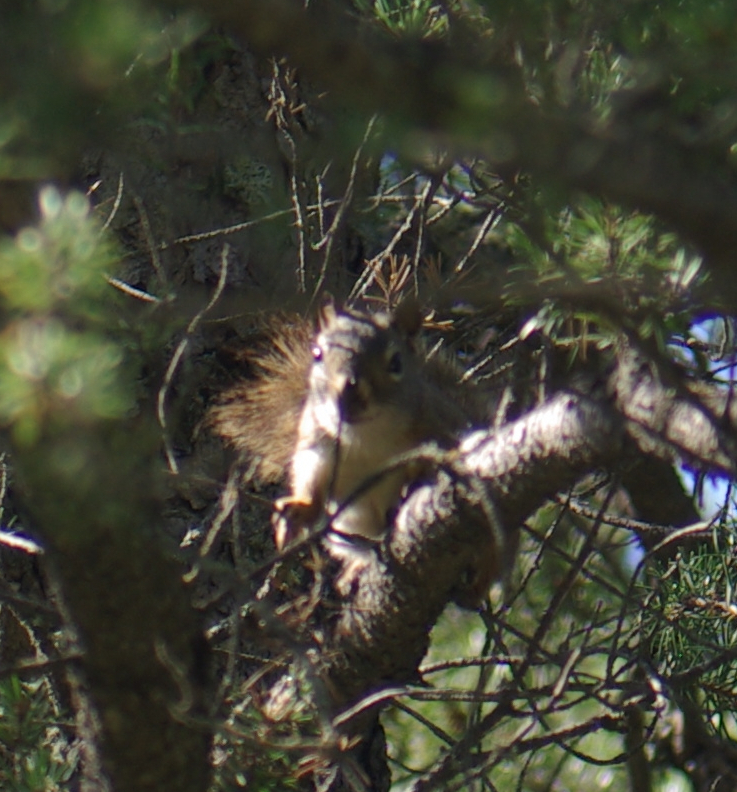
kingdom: Animalia
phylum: Chordata
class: Mammalia
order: Rodentia
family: Sciuridae
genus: Tamiasciurus
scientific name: Tamiasciurus hudsonicus
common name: Red squirrel
